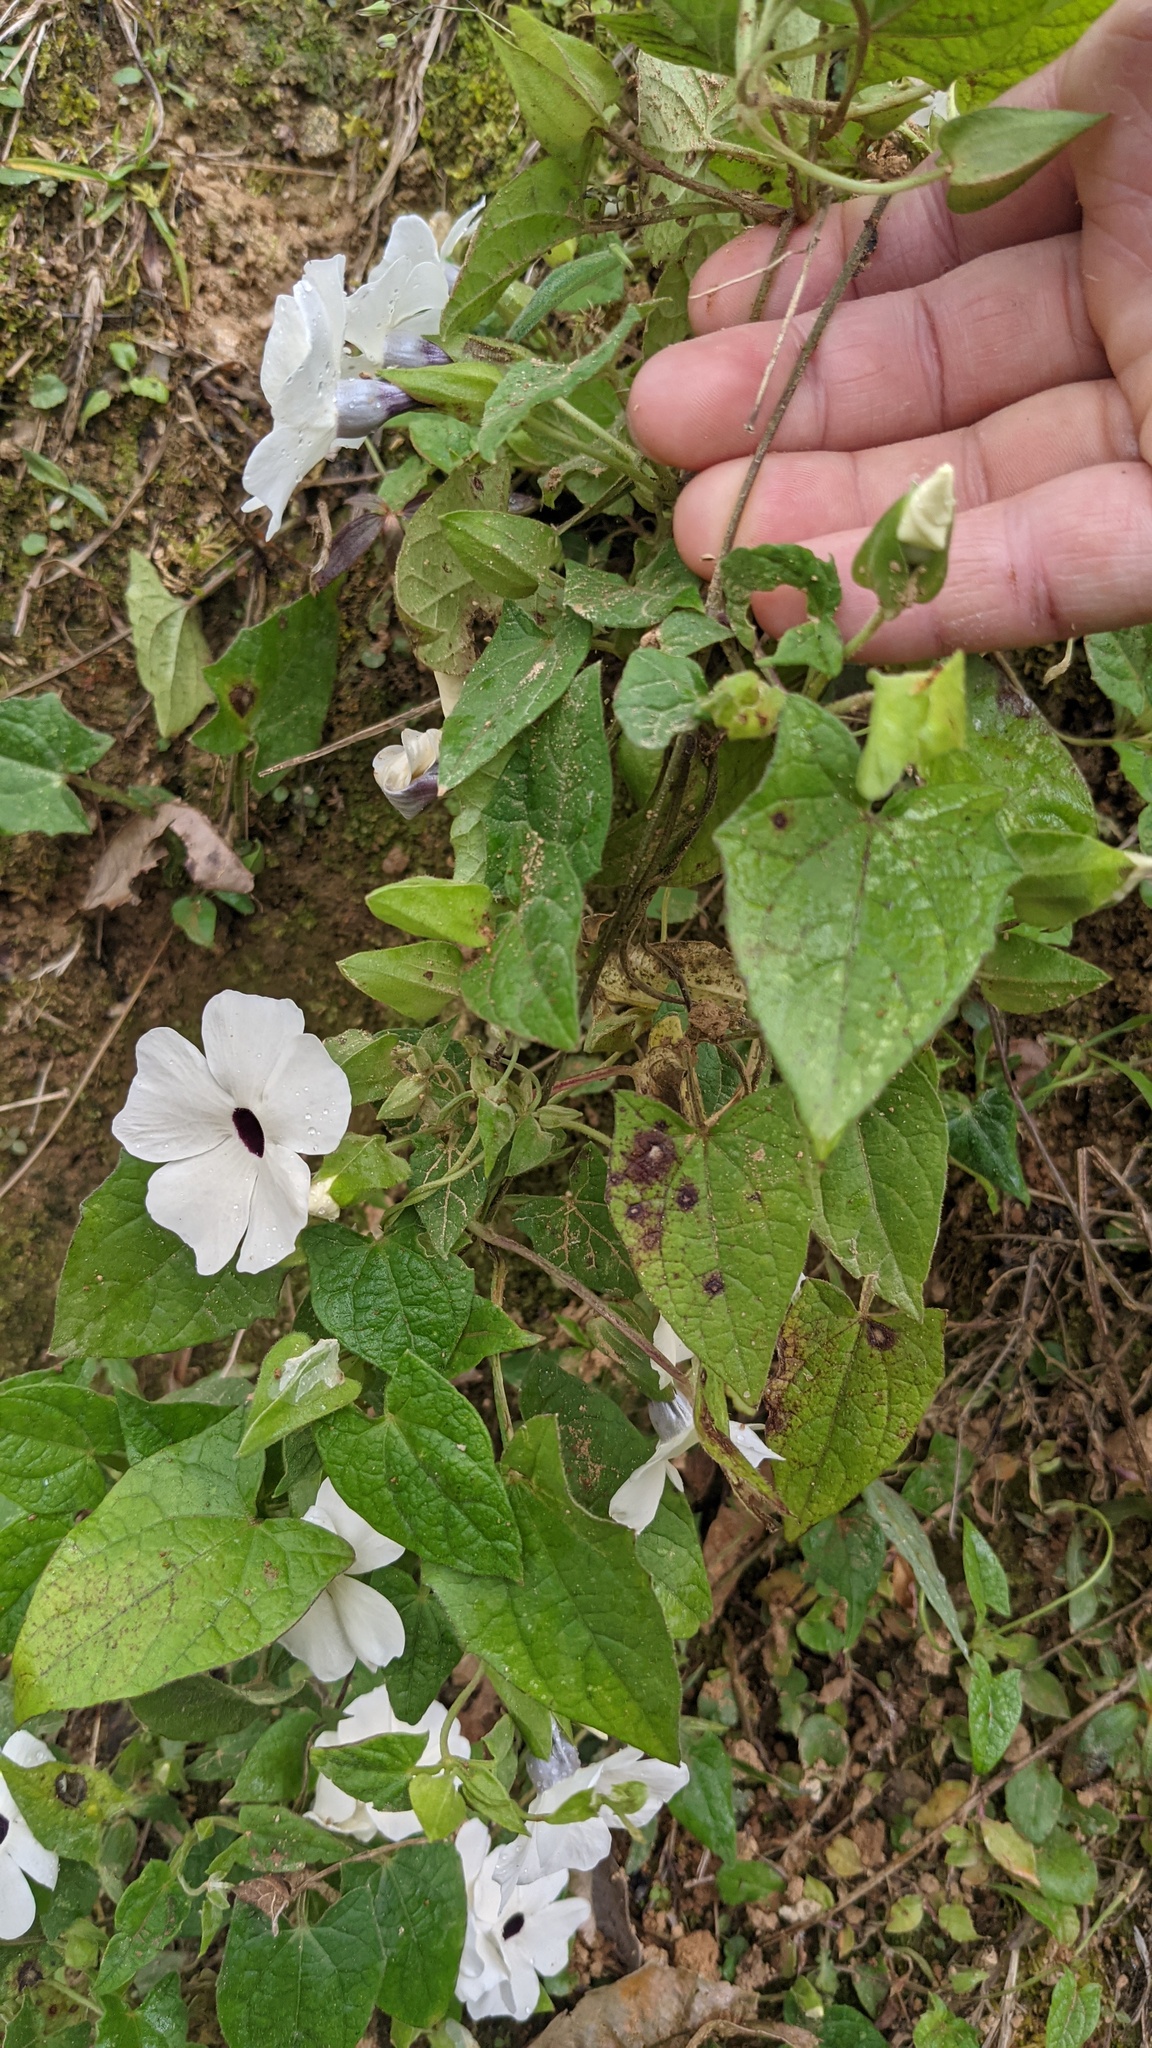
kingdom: Plantae
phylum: Tracheophyta
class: Magnoliopsida
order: Lamiales
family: Acanthaceae
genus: Thunbergia
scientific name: Thunbergia alata
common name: Blackeyed susan vine
